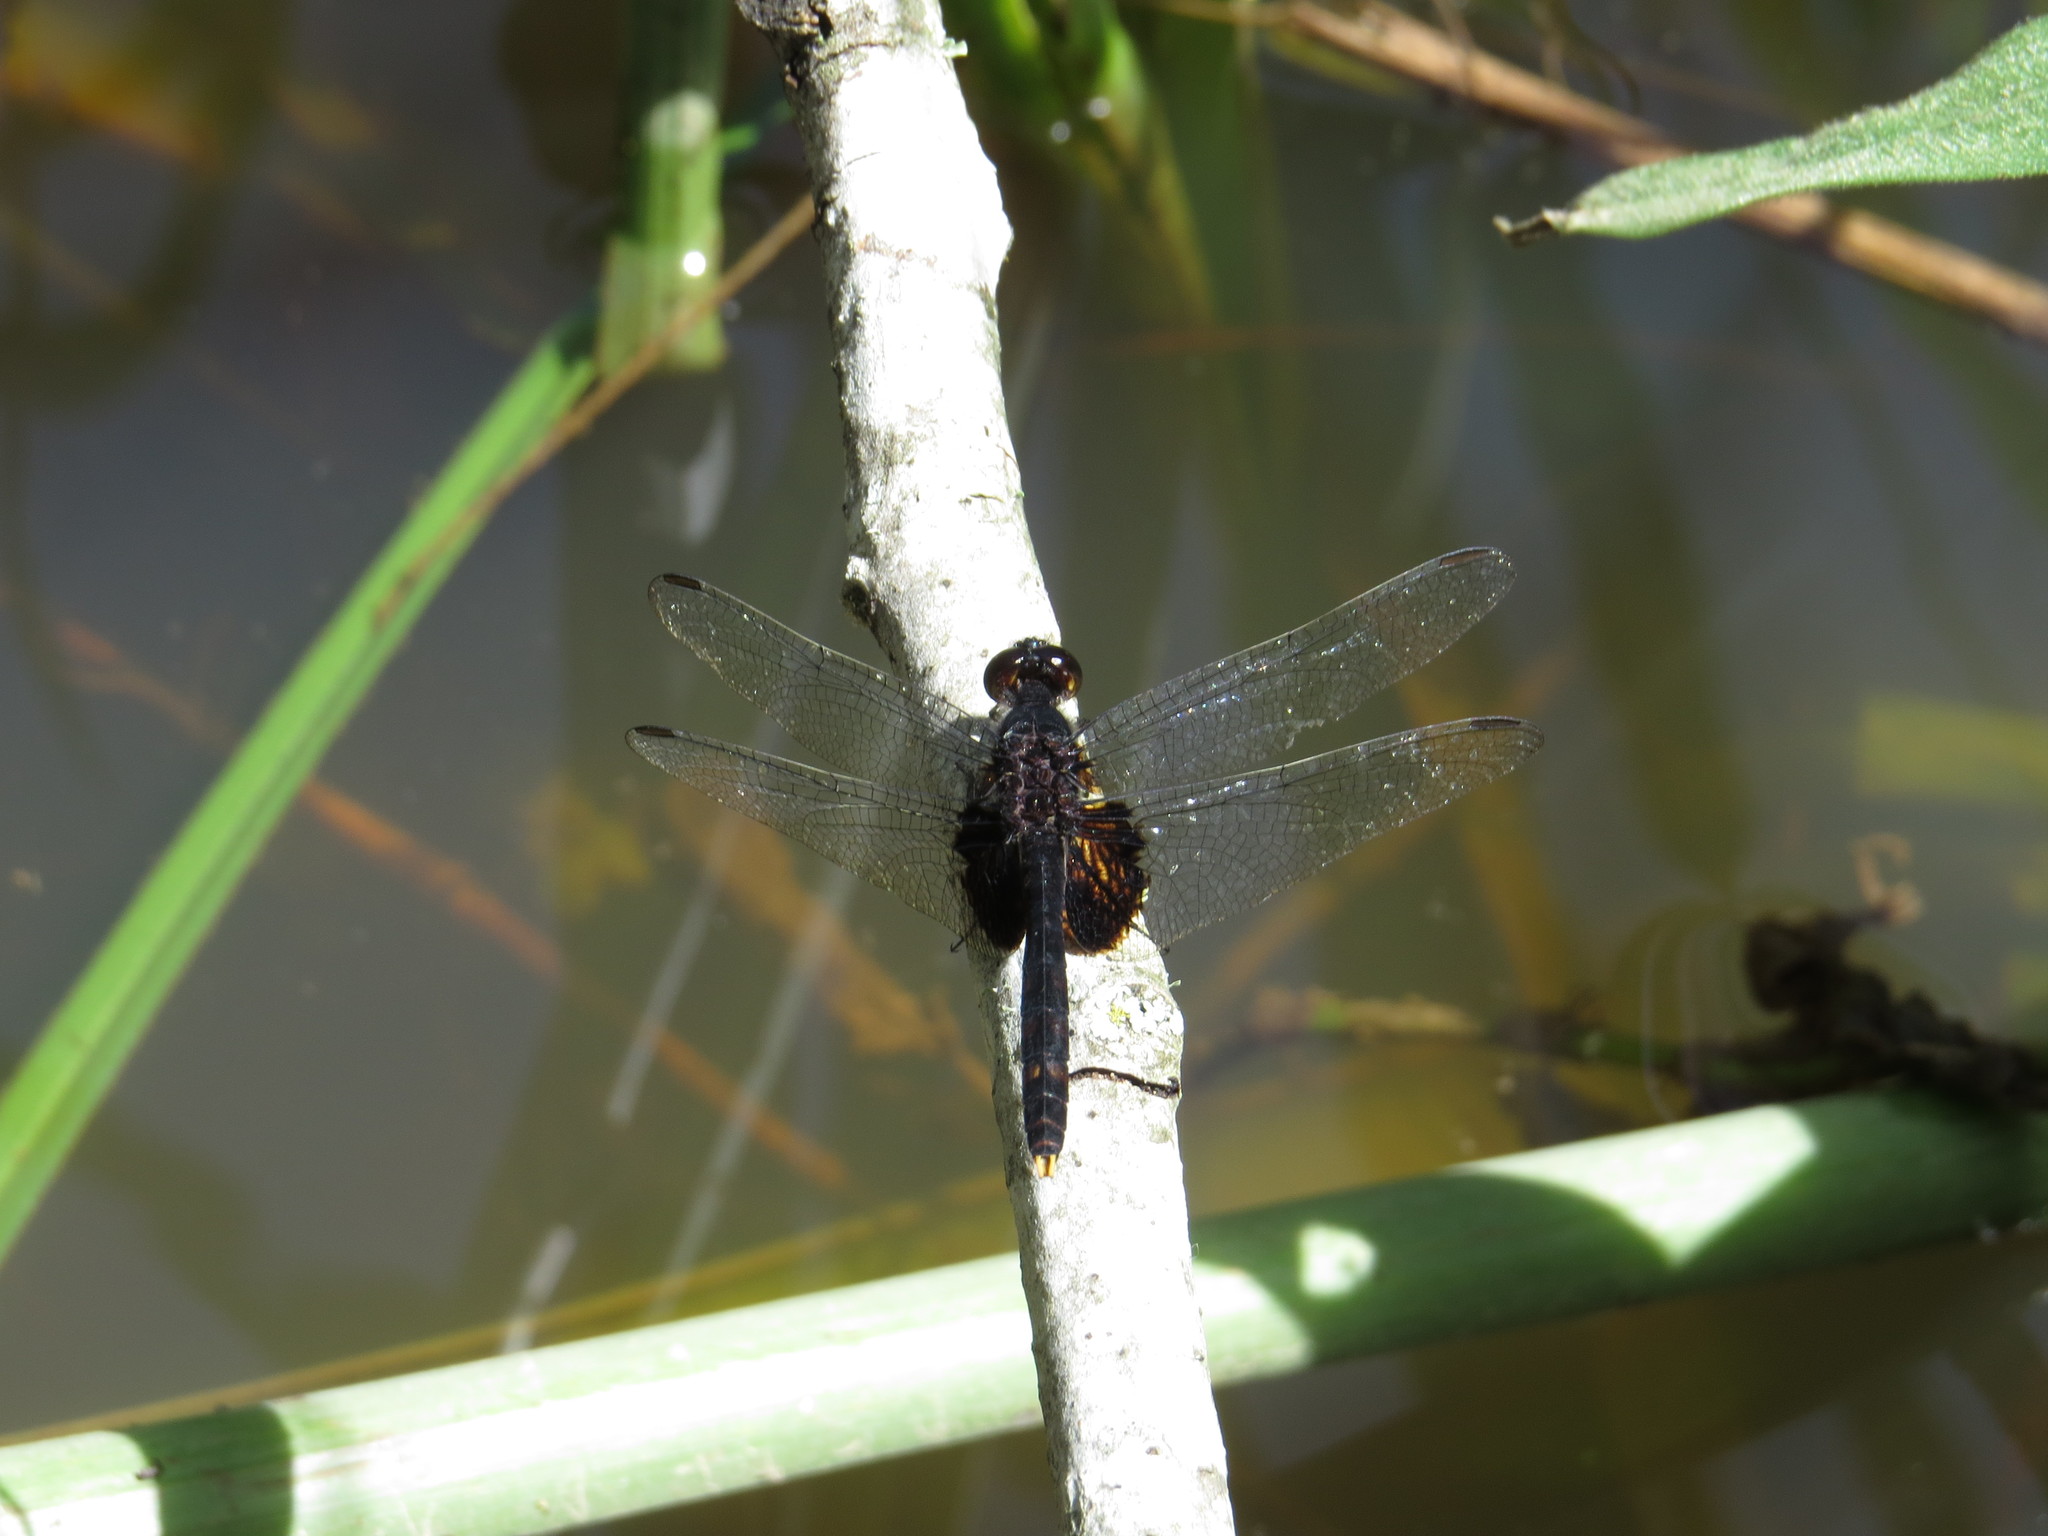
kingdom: Animalia
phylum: Arthropoda
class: Insecta
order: Odonata
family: Libellulidae
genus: Erythemis
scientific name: Erythemis attala
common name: Black pondhawk
